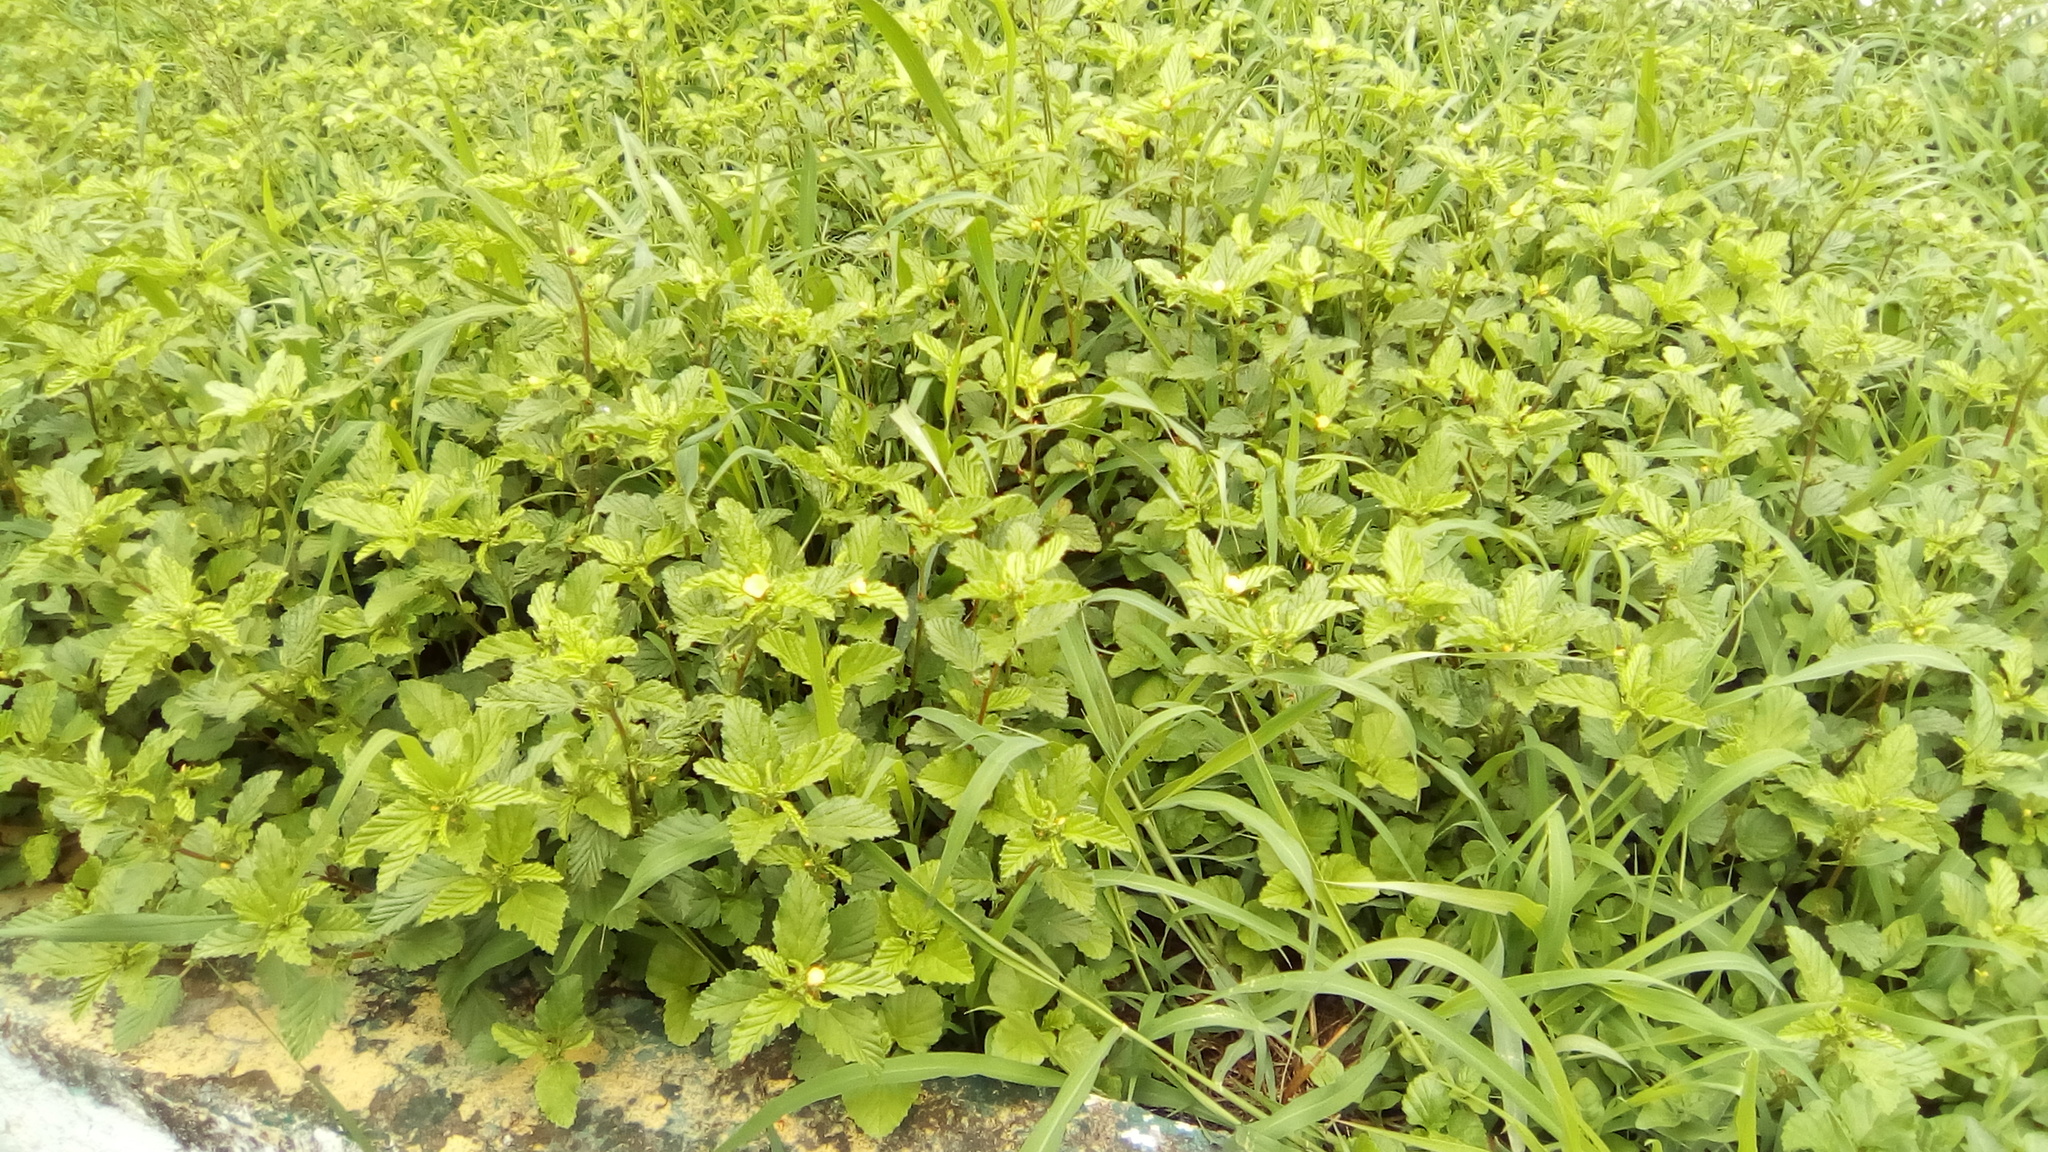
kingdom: Plantae
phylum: Tracheophyta
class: Magnoliopsida
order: Malvales
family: Malvaceae
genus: Malvastrum
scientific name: Malvastrum coromandelianum
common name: Threelobe false mallow
